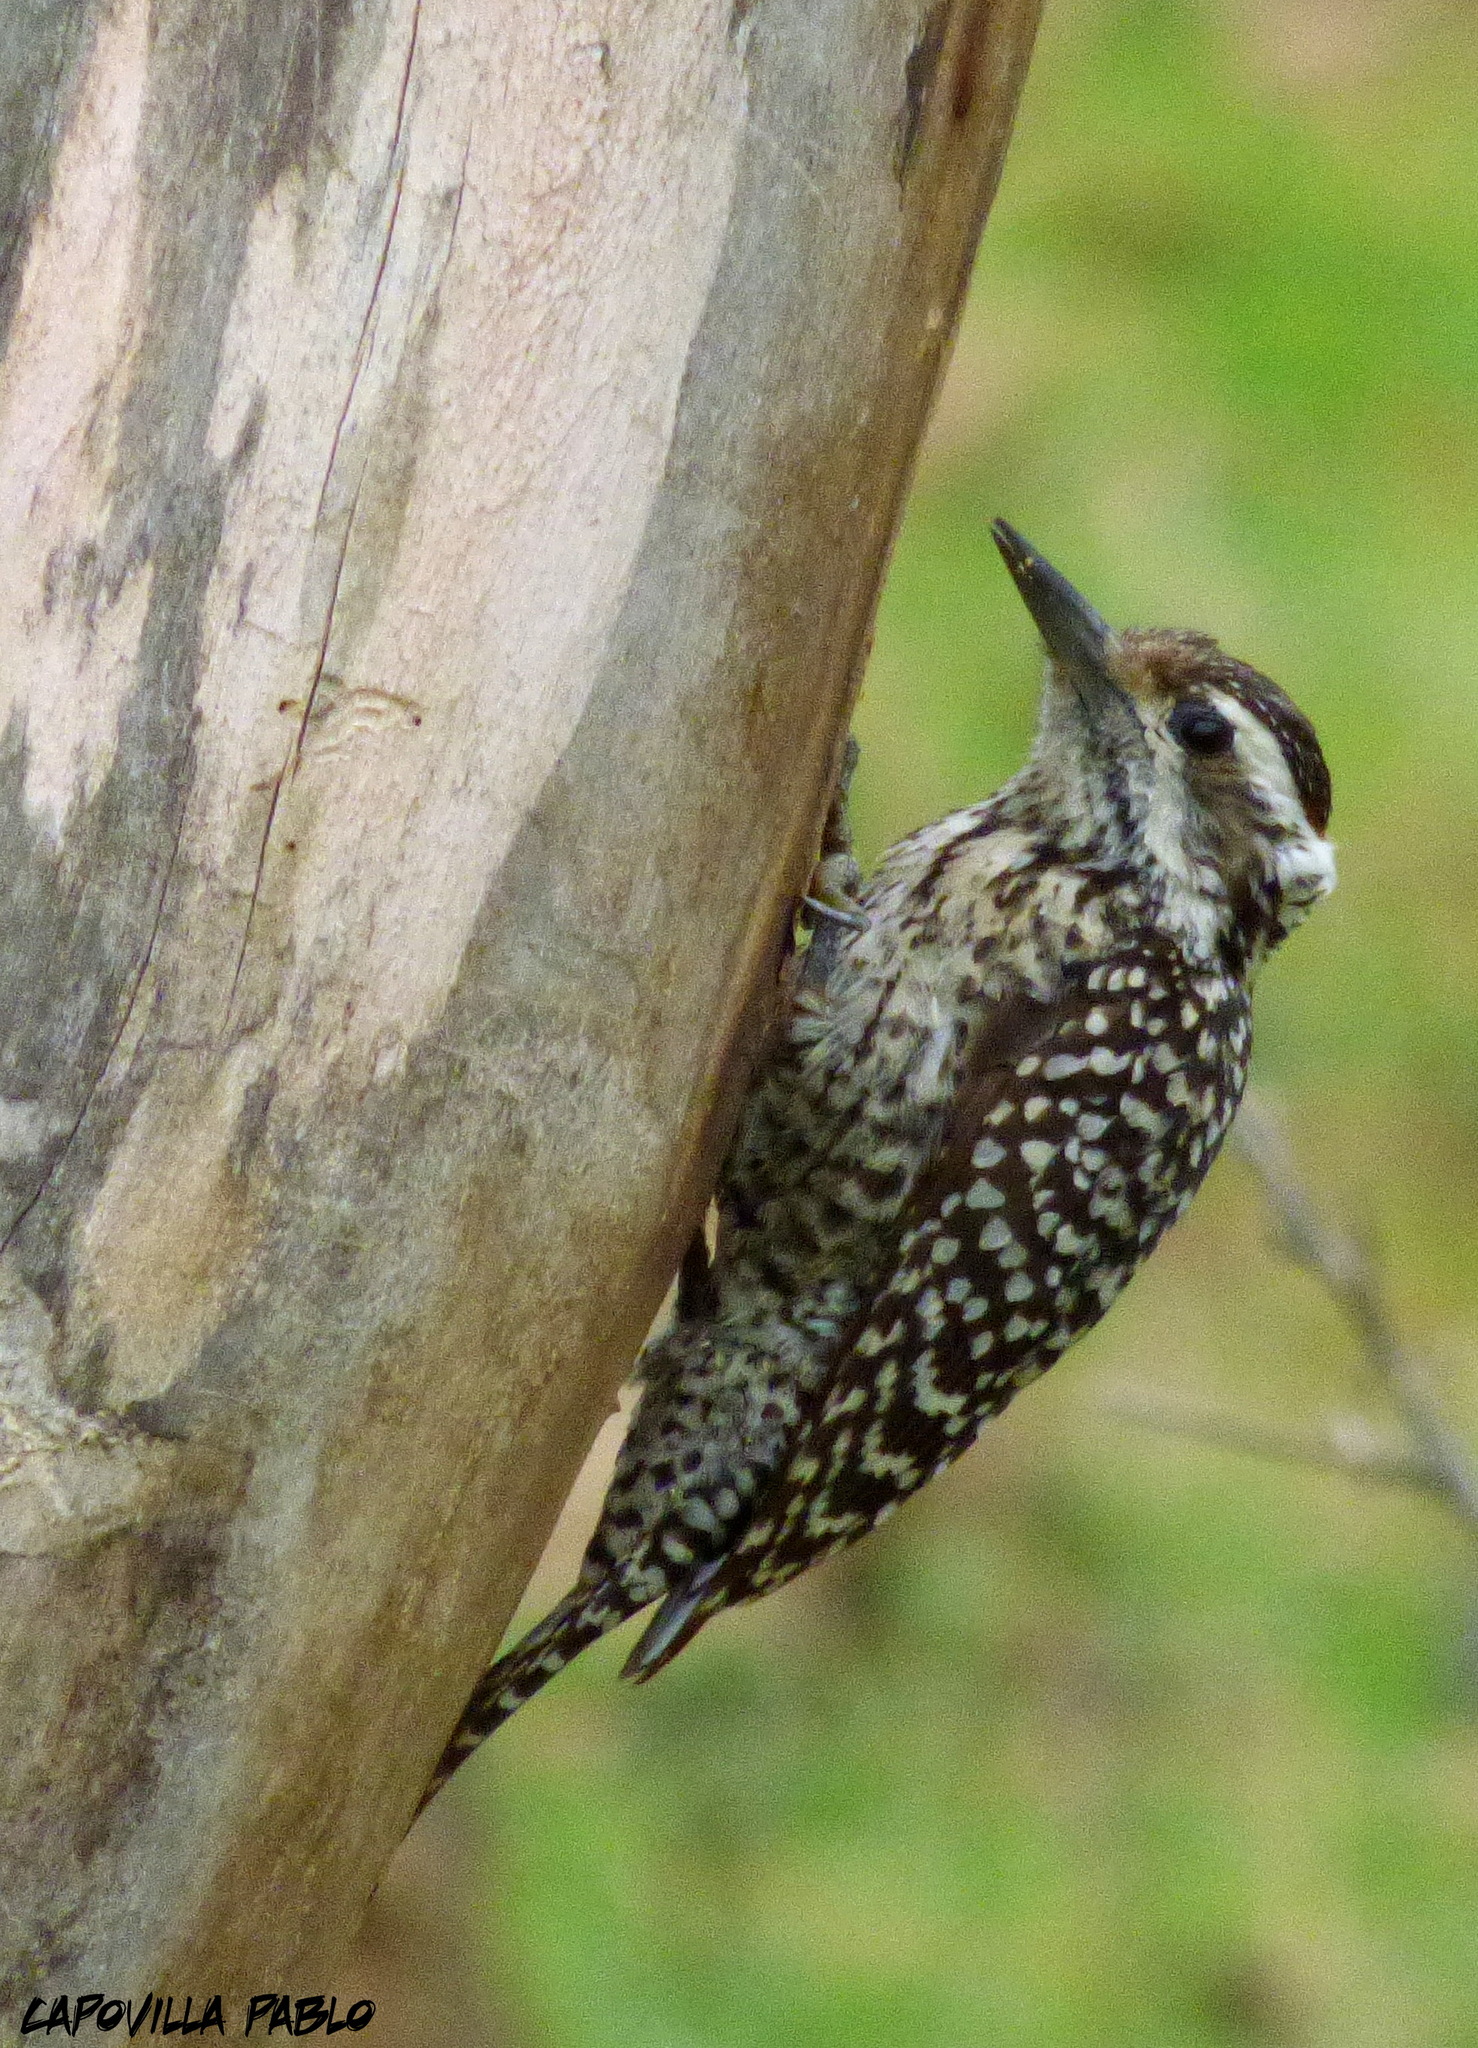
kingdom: Animalia
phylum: Chordata
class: Aves
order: Piciformes
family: Picidae
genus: Veniliornis
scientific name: Veniliornis mixtus
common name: Checkered woodpecker
